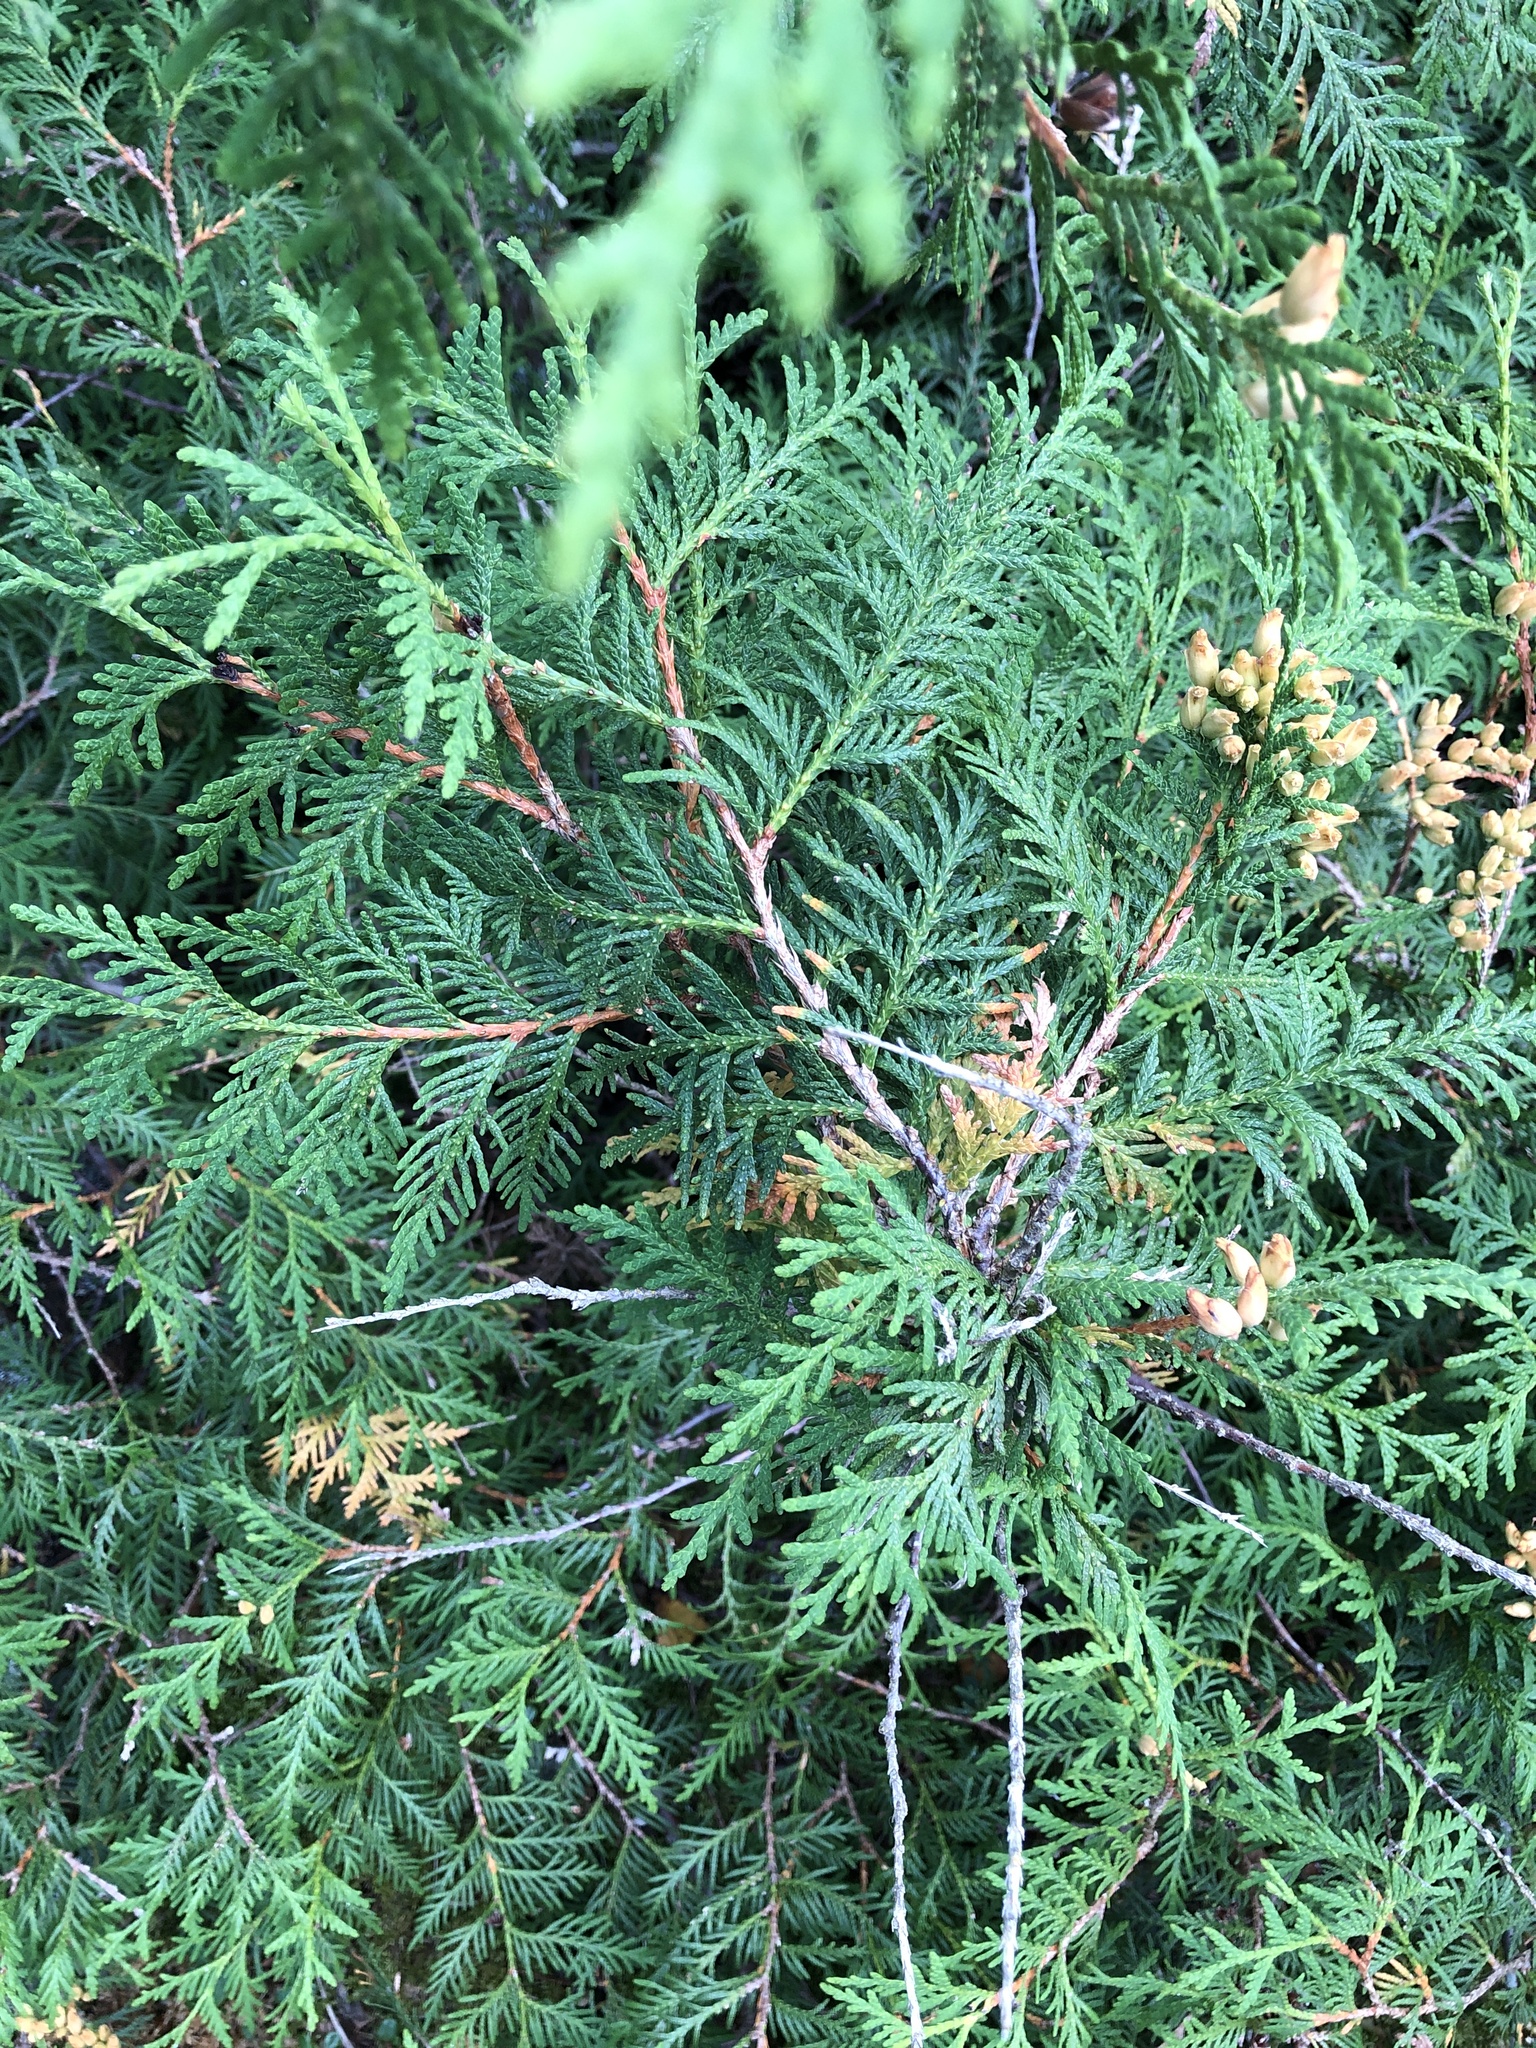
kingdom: Plantae
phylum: Tracheophyta
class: Pinopsida
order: Pinales
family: Cupressaceae
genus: Thuja
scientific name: Thuja occidentalis
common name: Northern white-cedar
